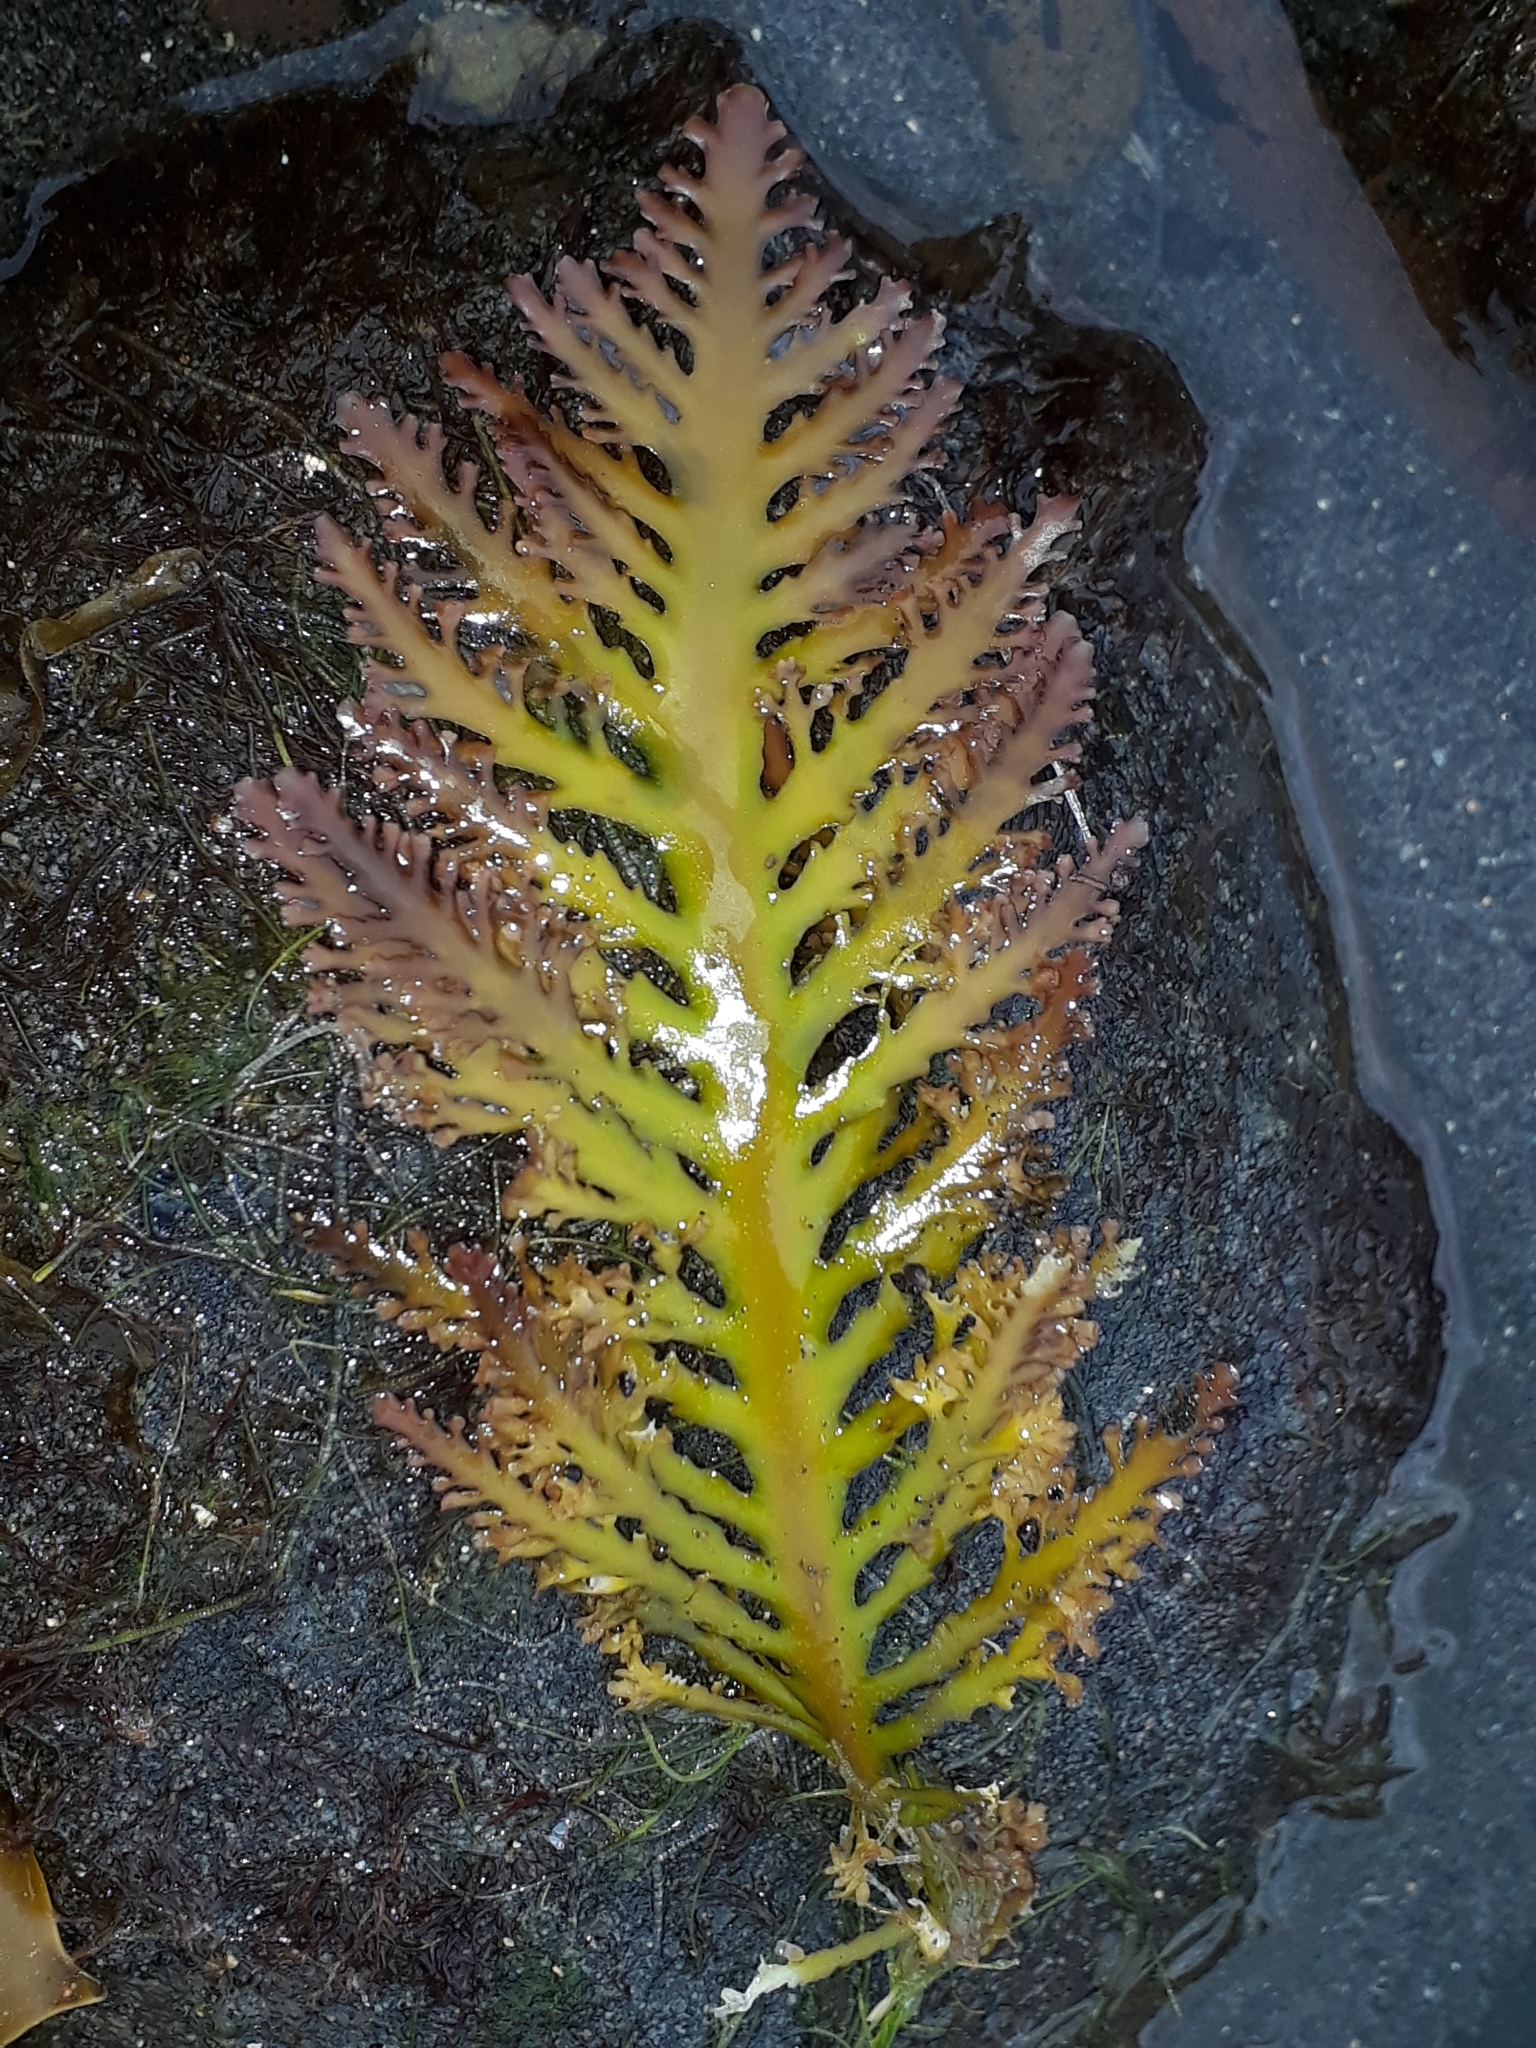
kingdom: Plantae
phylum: Rhodophyta
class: Florideophyceae
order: Gelidiales
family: Pterocladiaceae
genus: Pterocladia
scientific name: Pterocladia lucida
